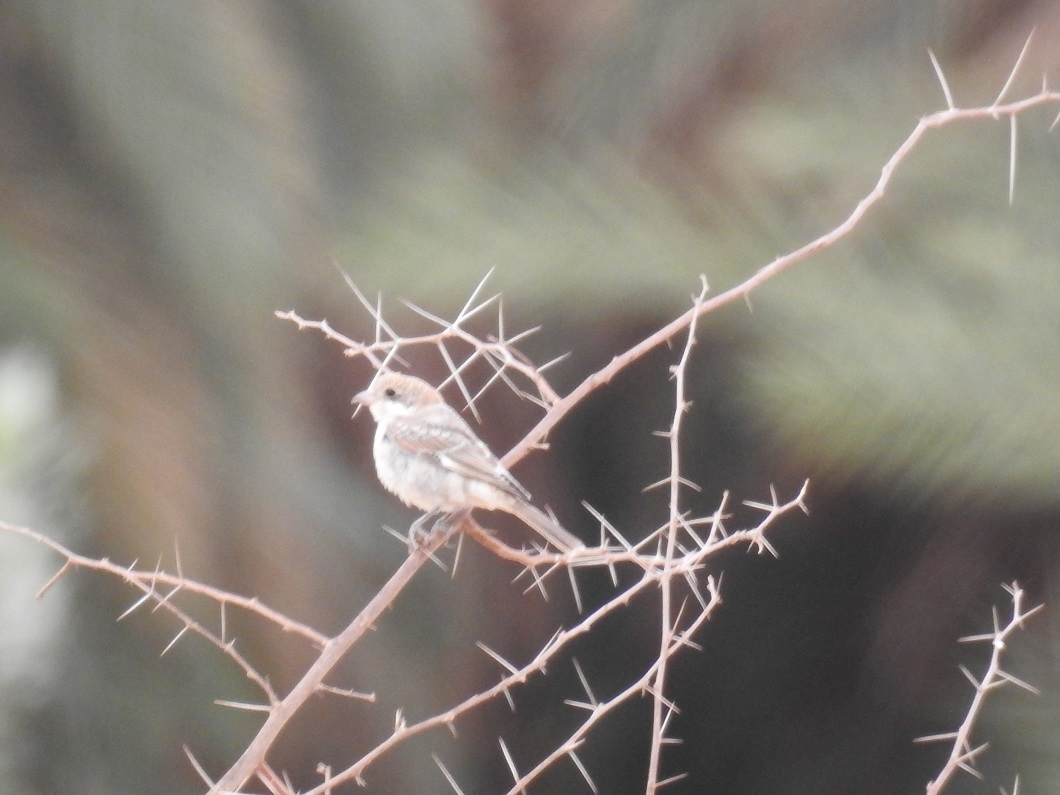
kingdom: Animalia
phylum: Chordata
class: Aves
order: Passeriformes
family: Laniidae
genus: Lanius
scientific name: Lanius senator
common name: Woodchat shrike
